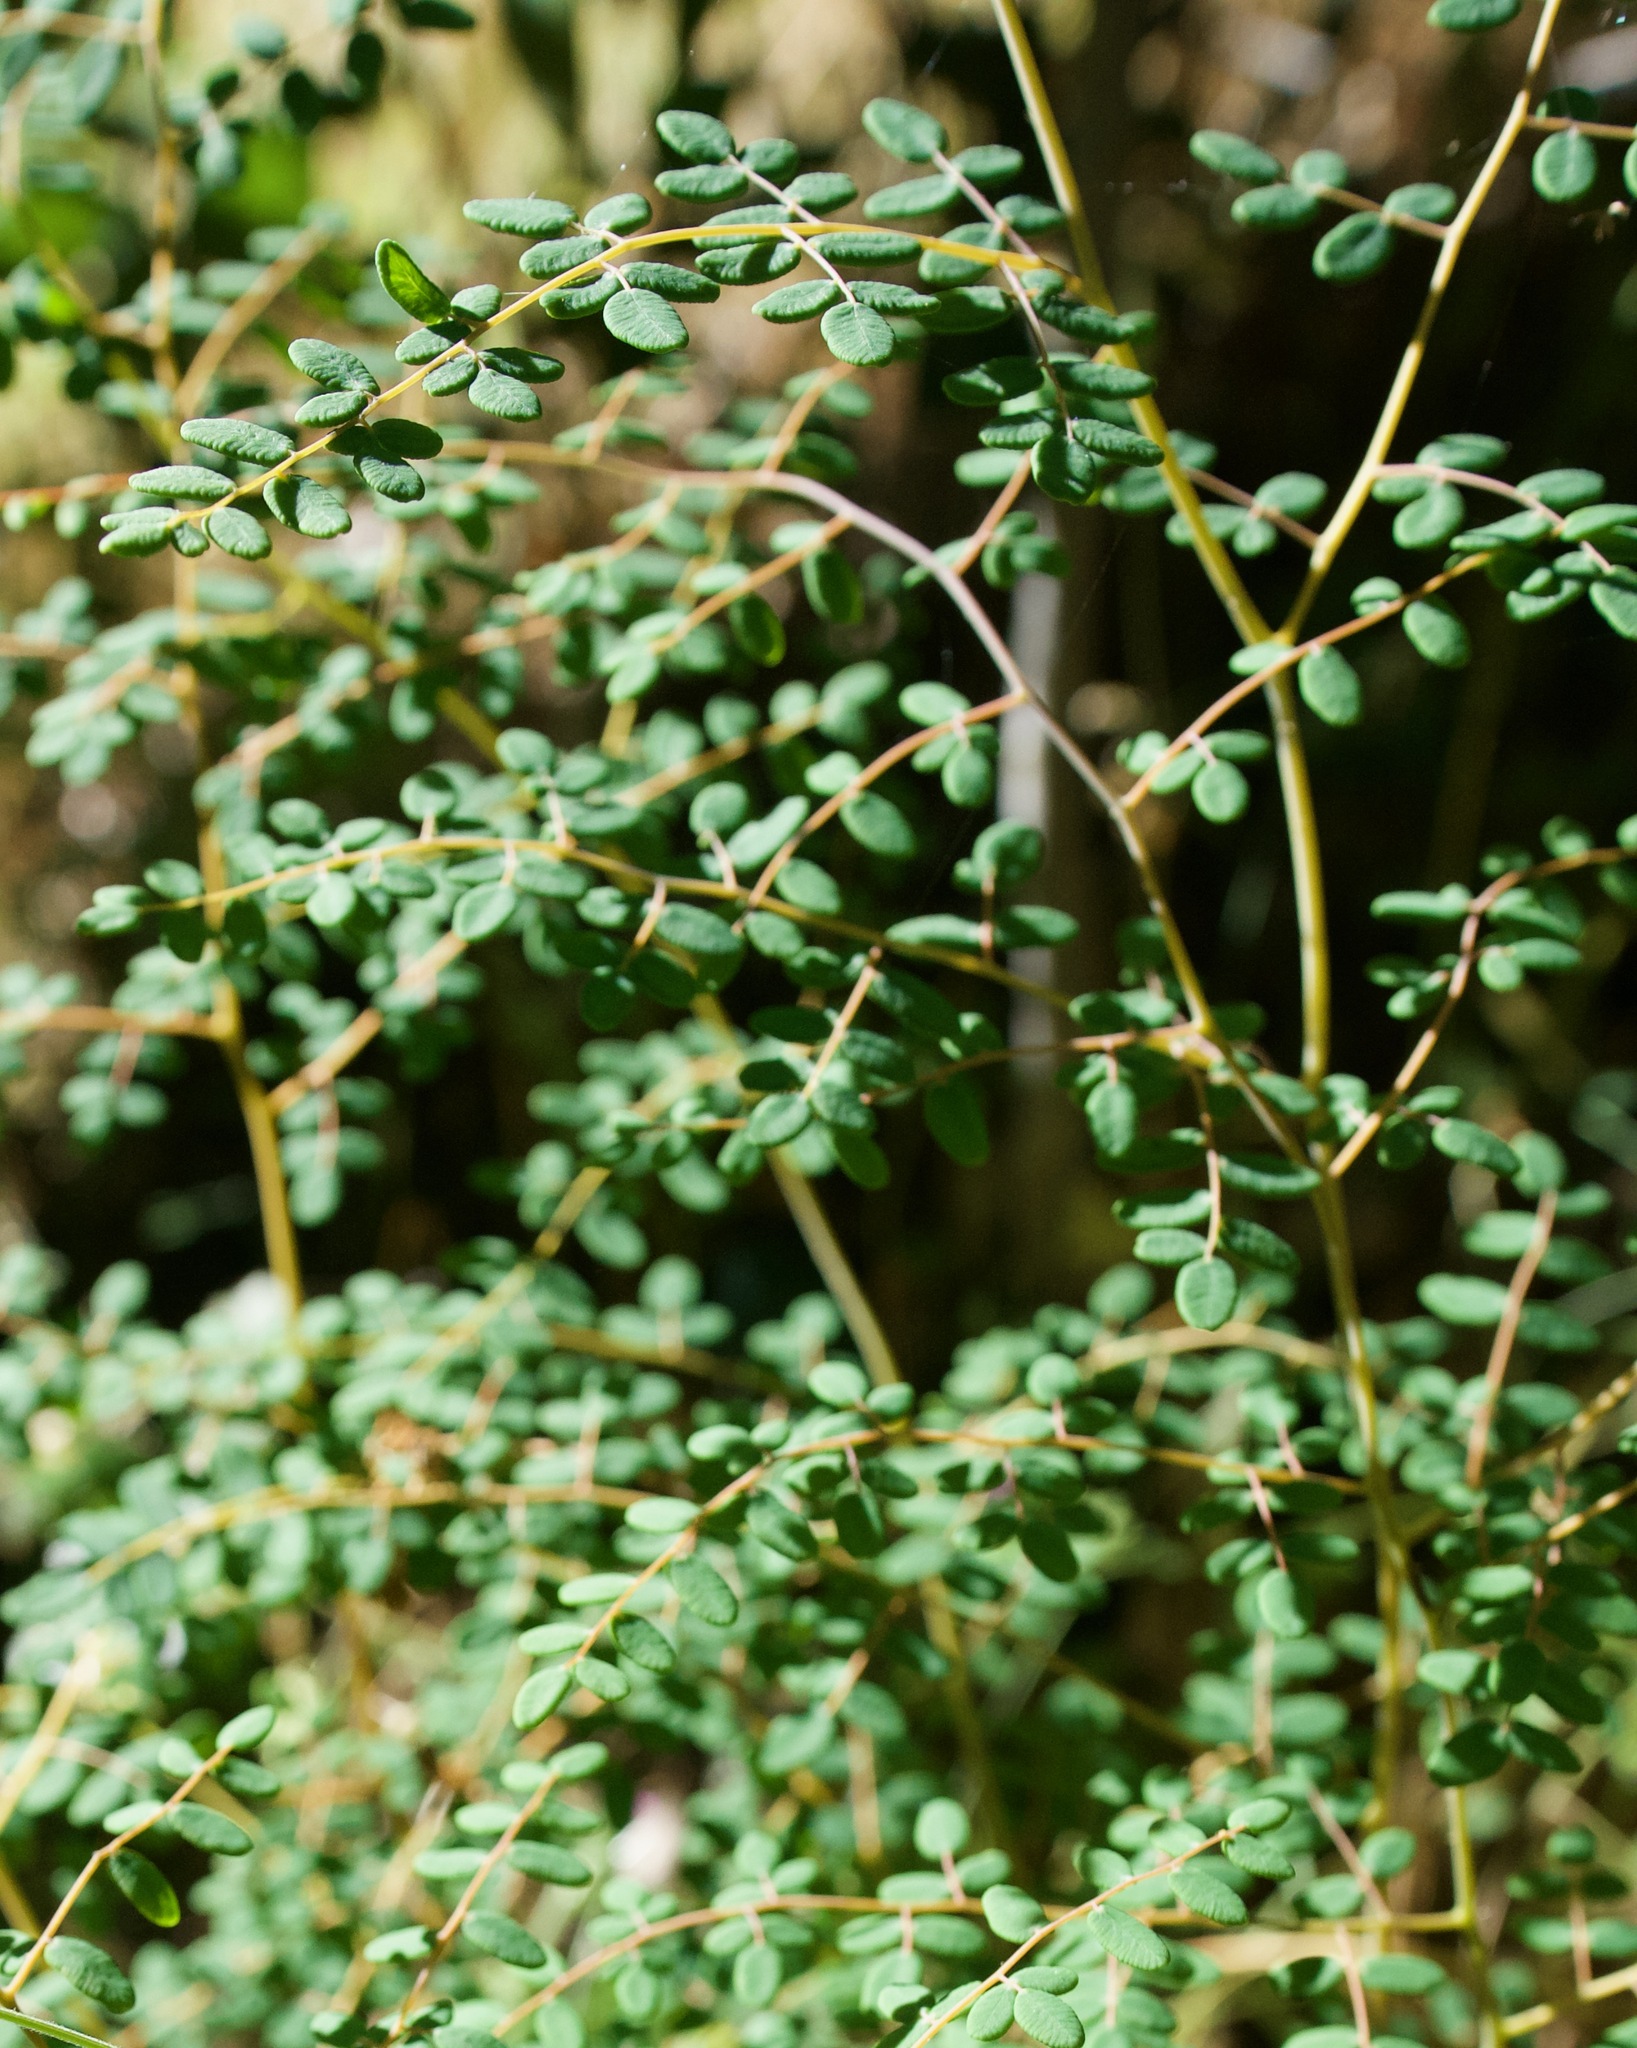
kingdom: Plantae
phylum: Tracheophyta
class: Polypodiopsida
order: Polypodiales
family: Pteridaceae
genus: Pellaea
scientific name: Pellaea andromedifolia
